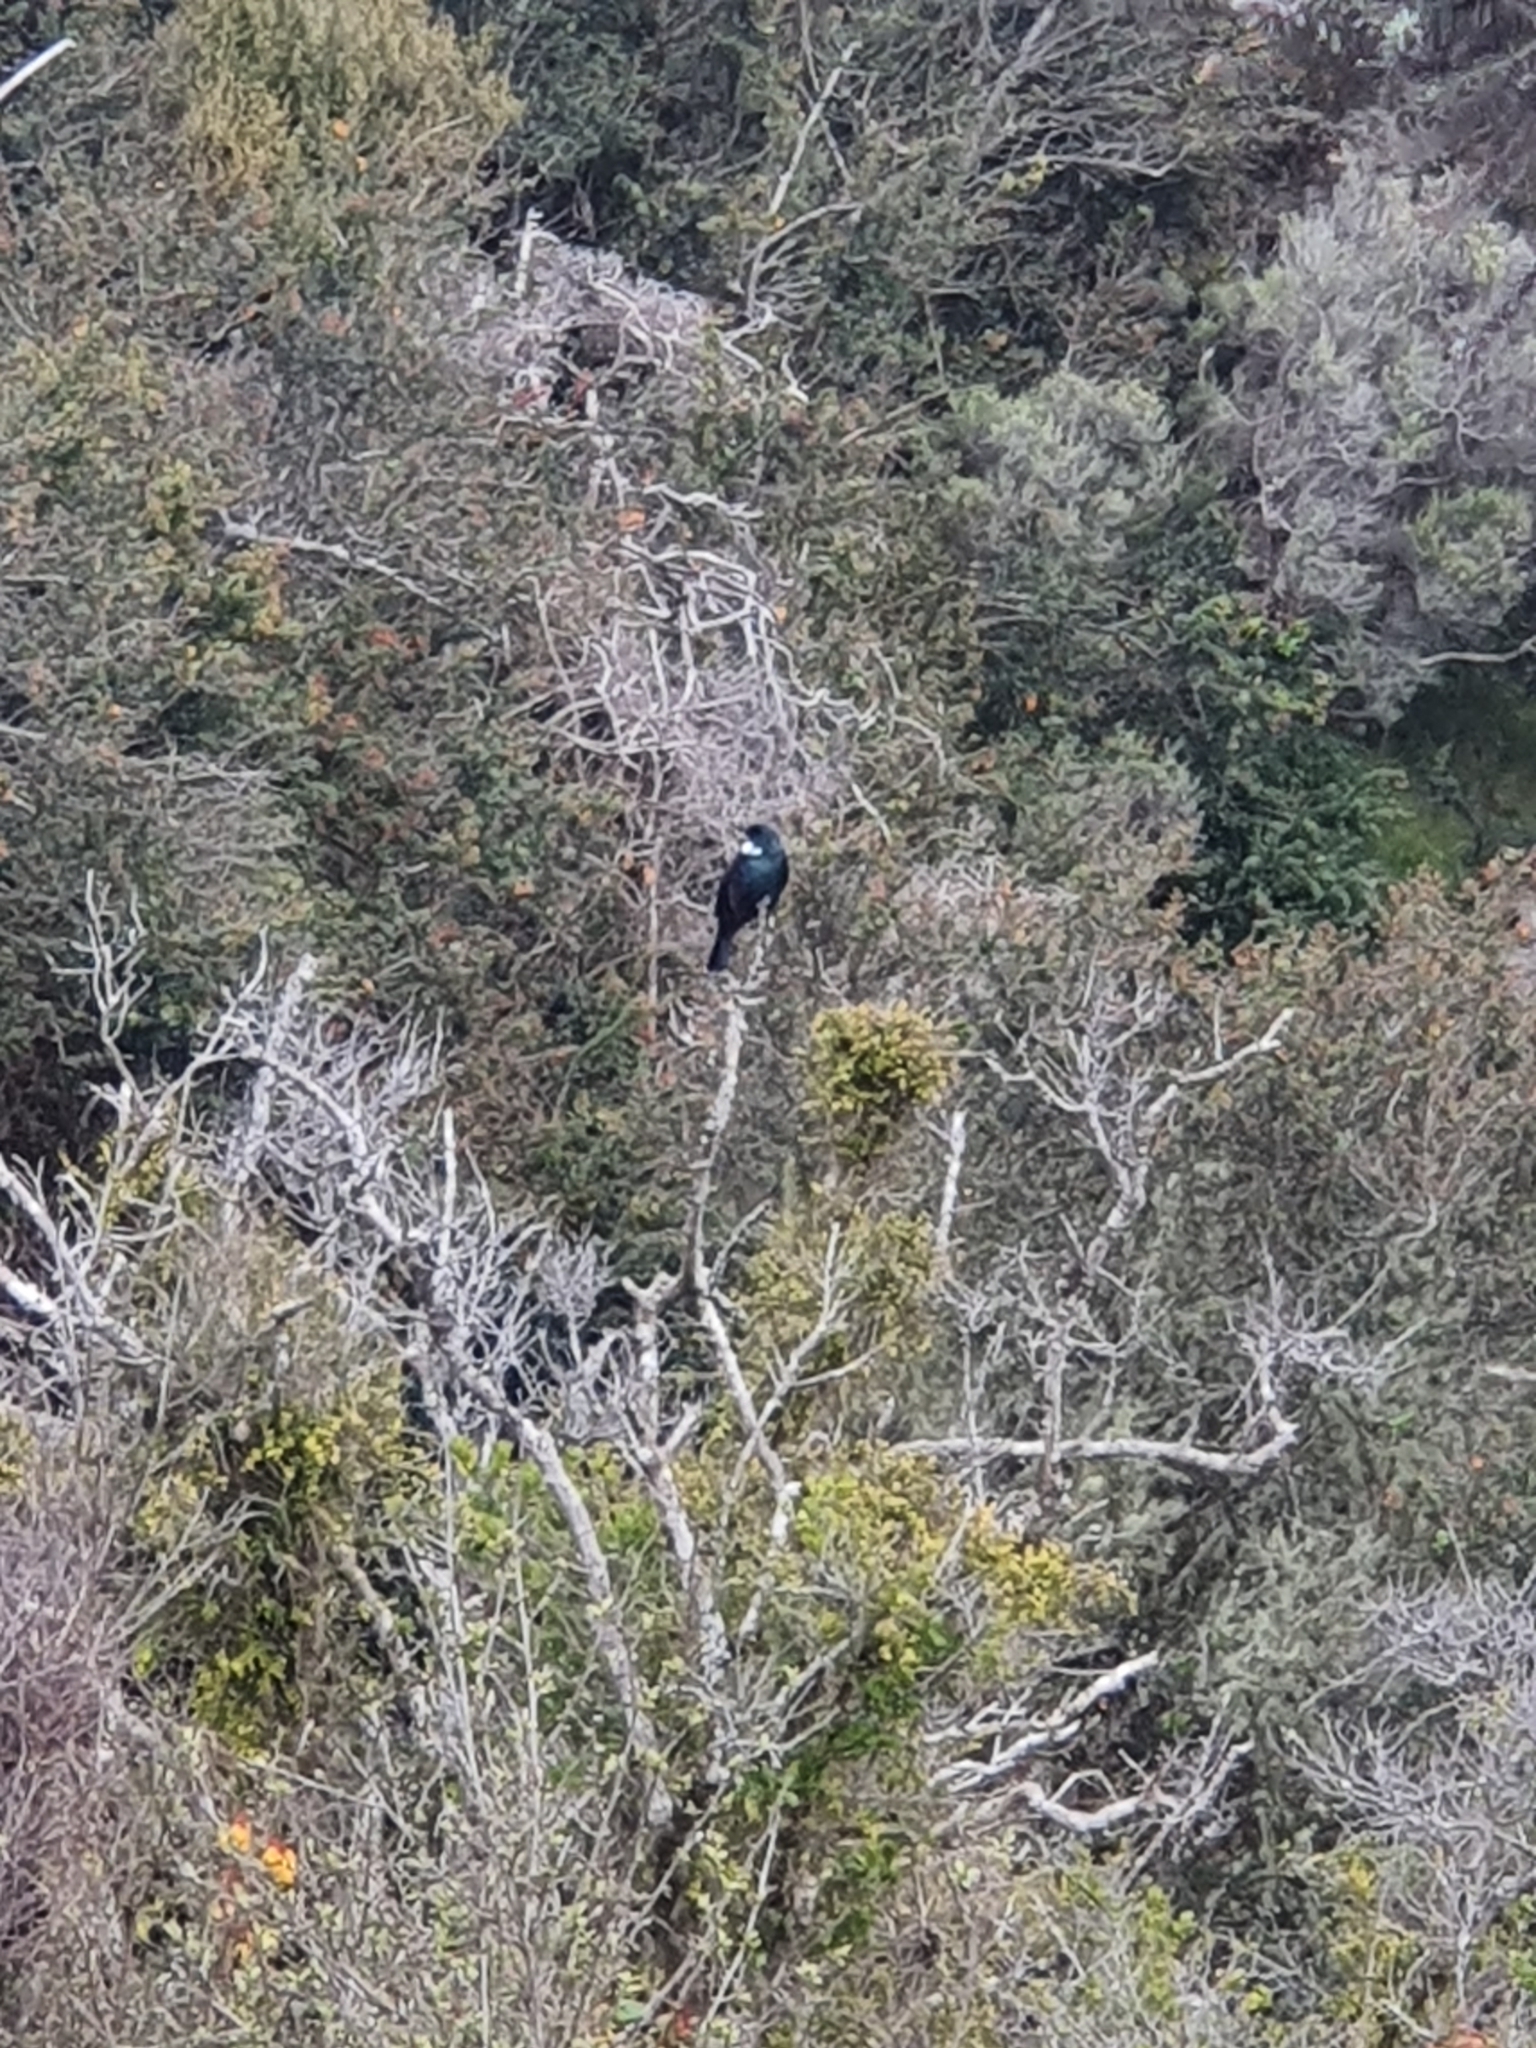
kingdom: Animalia
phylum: Chordata
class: Aves
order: Passeriformes
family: Meliphagidae
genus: Prosthemadera
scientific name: Prosthemadera novaeseelandiae
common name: Tui
